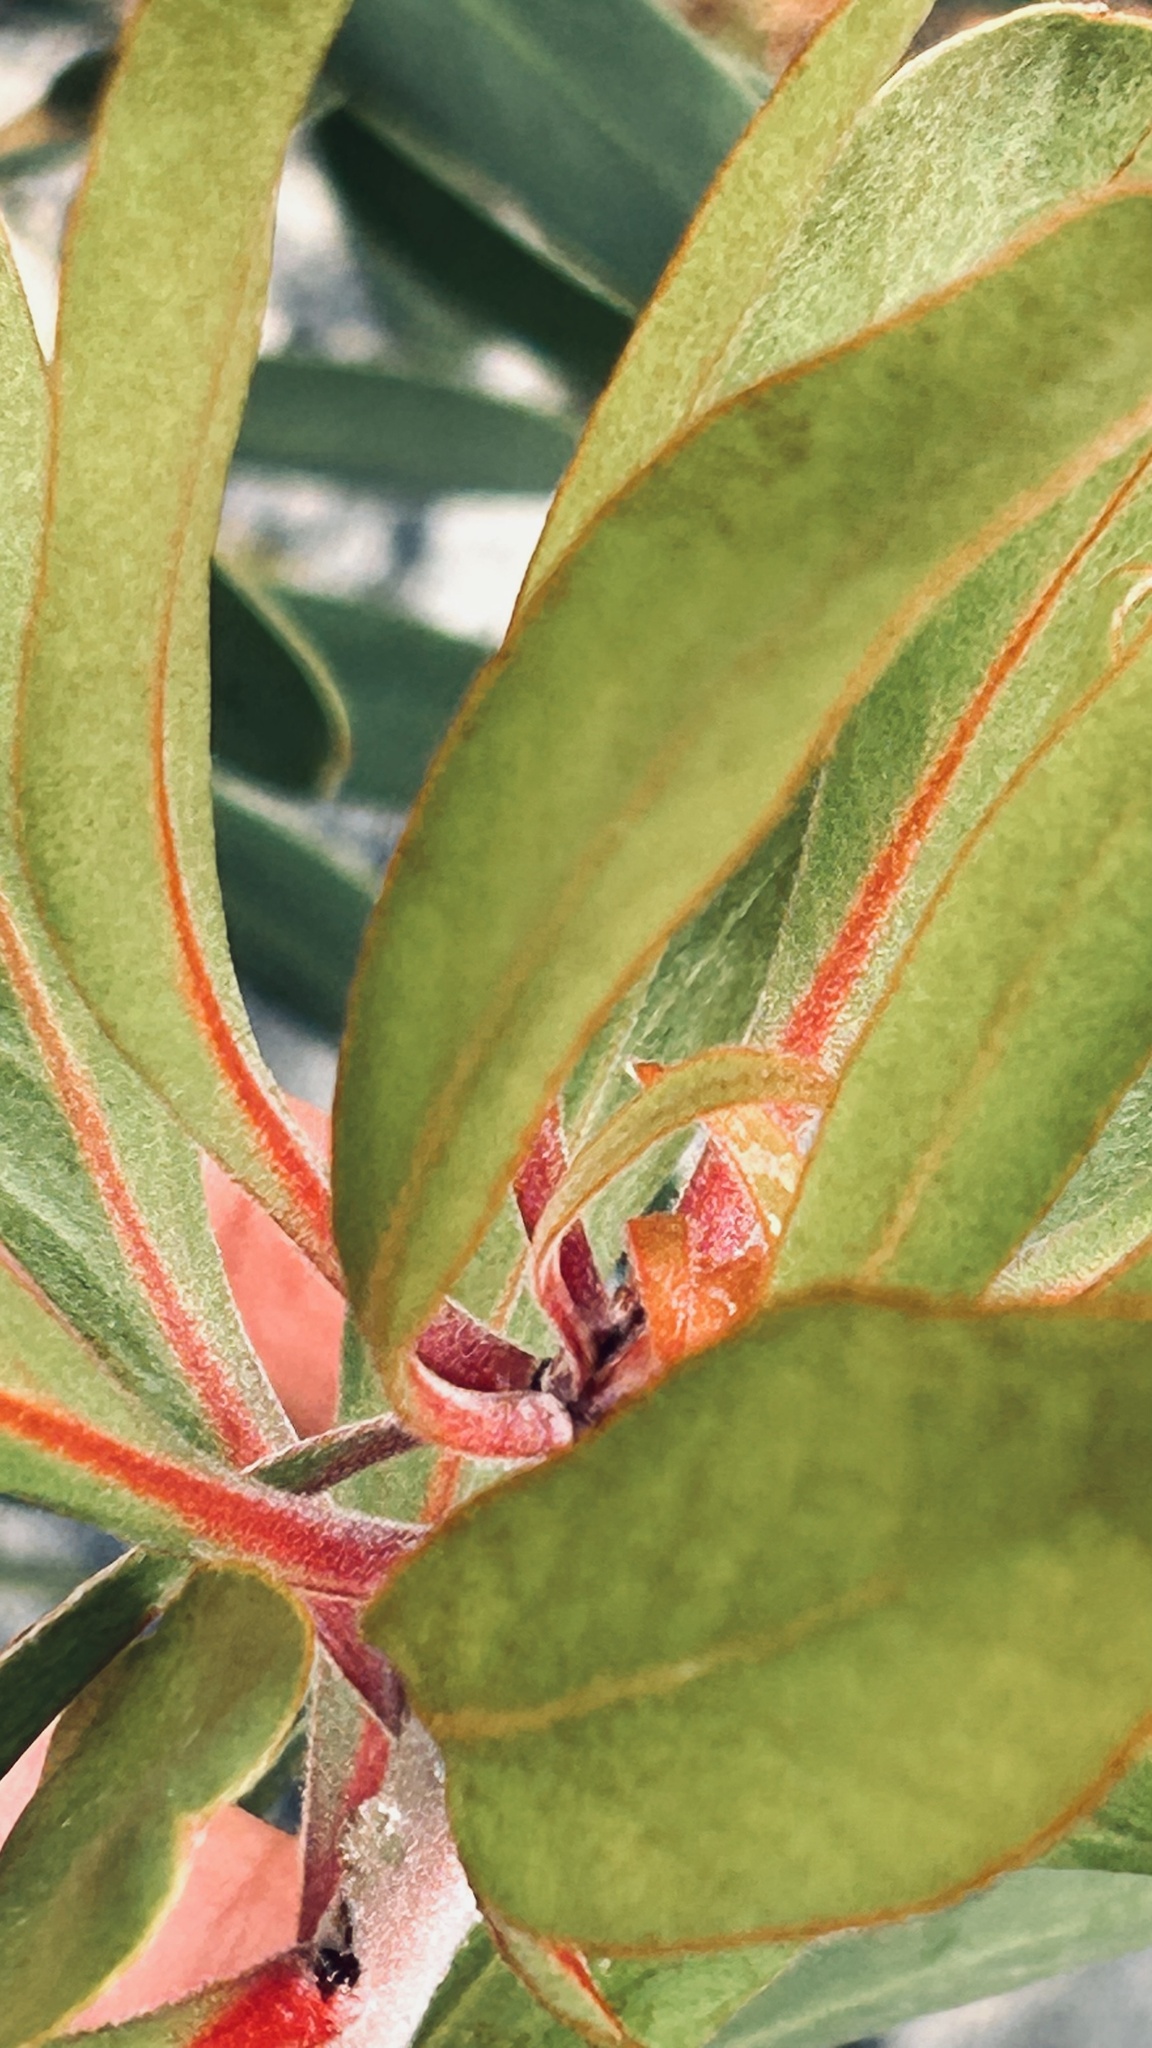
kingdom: Plantae
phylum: Tracheophyta
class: Magnoliopsida
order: Proteales
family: Proteaceae
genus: Protea
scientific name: Protea obtusifolia
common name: Bredasdorp sugarbush
